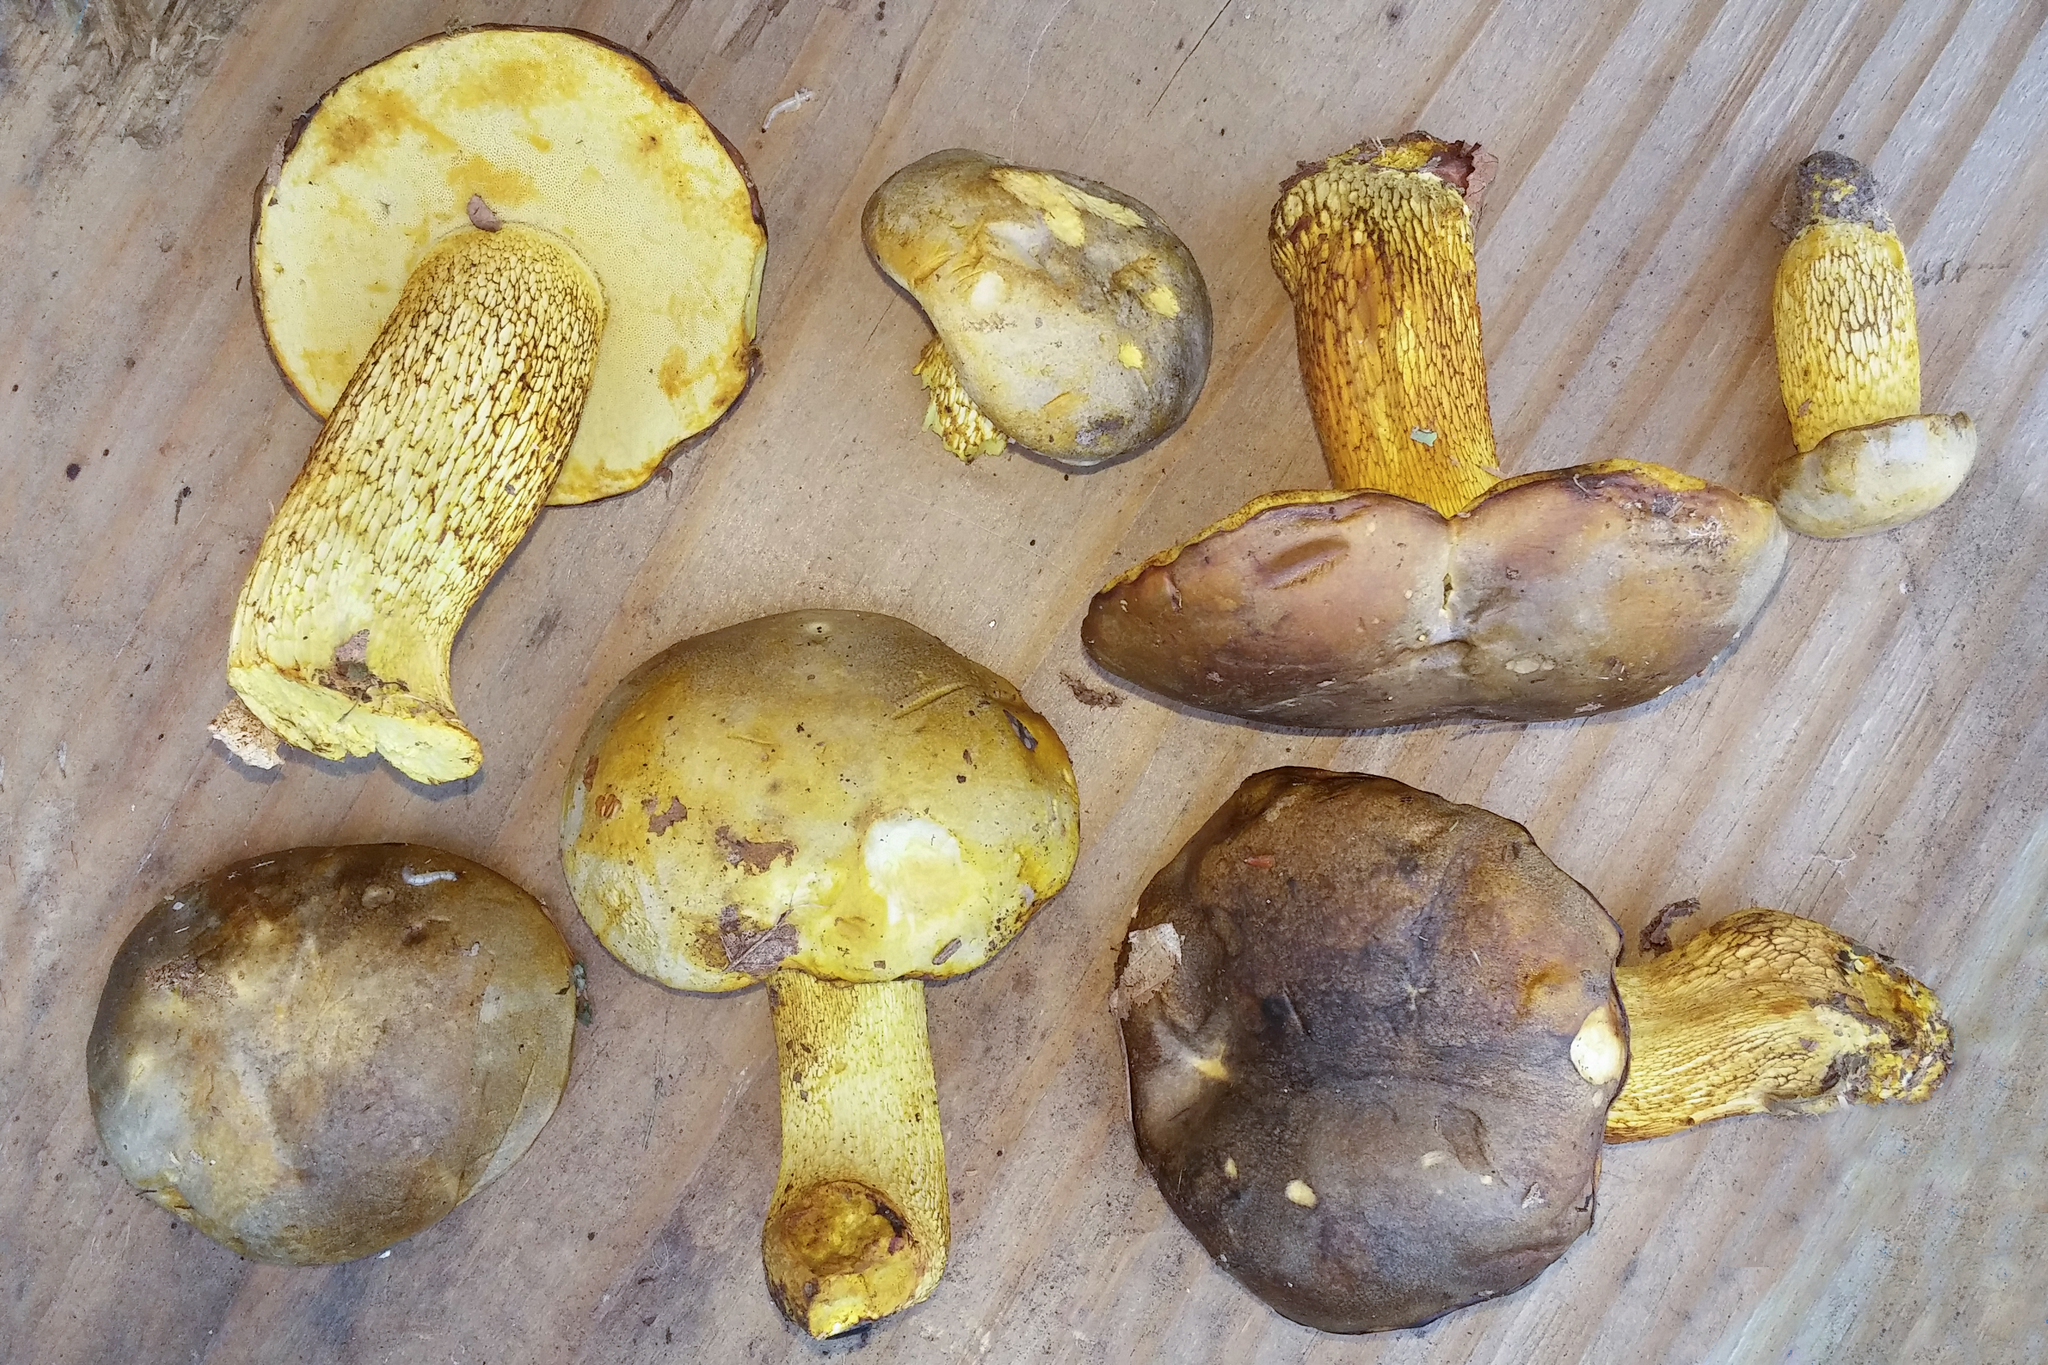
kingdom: Fungi
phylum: Basidiomycota
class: Agaricomycetes
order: Boletales
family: Boletaceae
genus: Retiboletus
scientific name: Retiboletus ornatipes
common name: Ornate-stalked bolete
